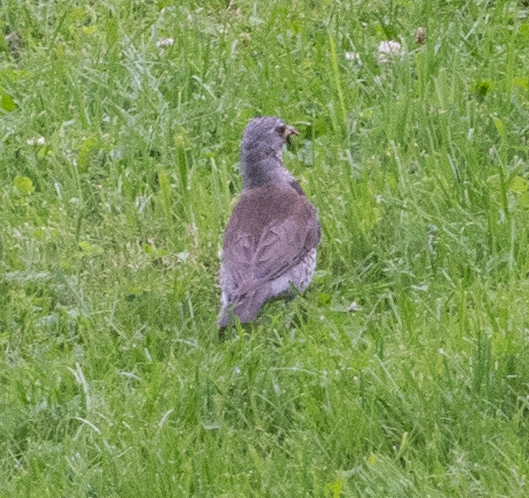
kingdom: Animalia
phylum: Chordata
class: Aves
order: Passeriformes
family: Turdidae
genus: Turdus
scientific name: Turdus pilaris
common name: Fieldfare
